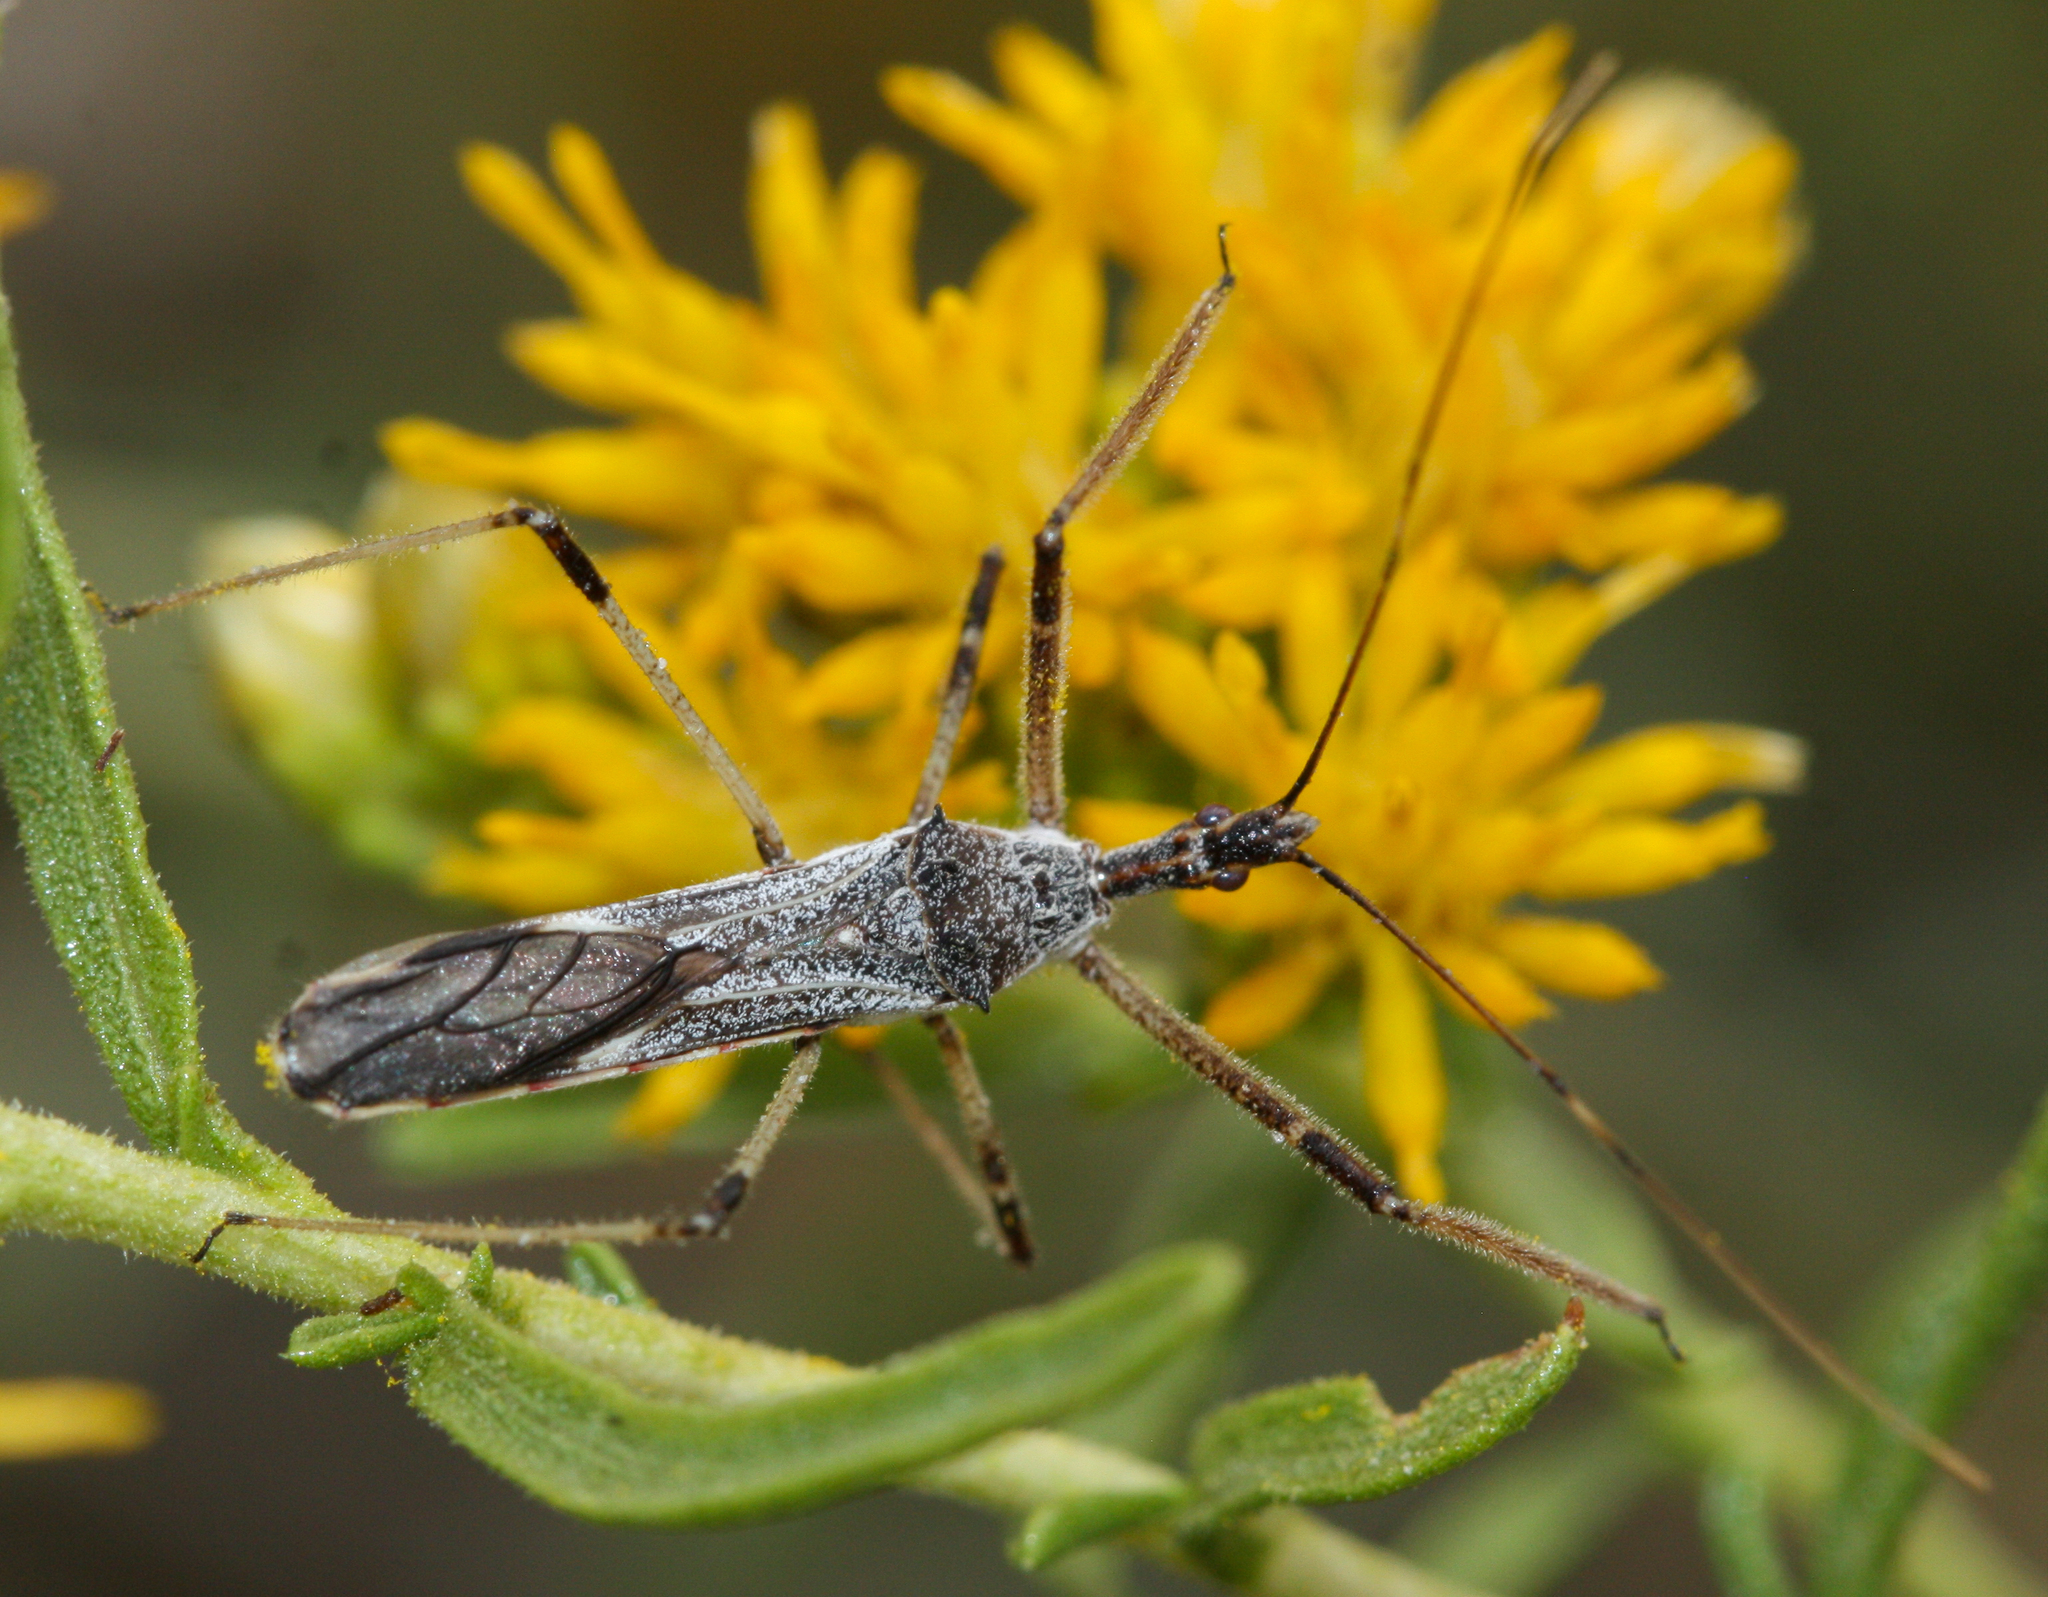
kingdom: Animalia
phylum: Arthropoda
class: Insecta
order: Hemiptera
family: Reduviidae
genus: Zelus
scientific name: Zelus tetracanthus
